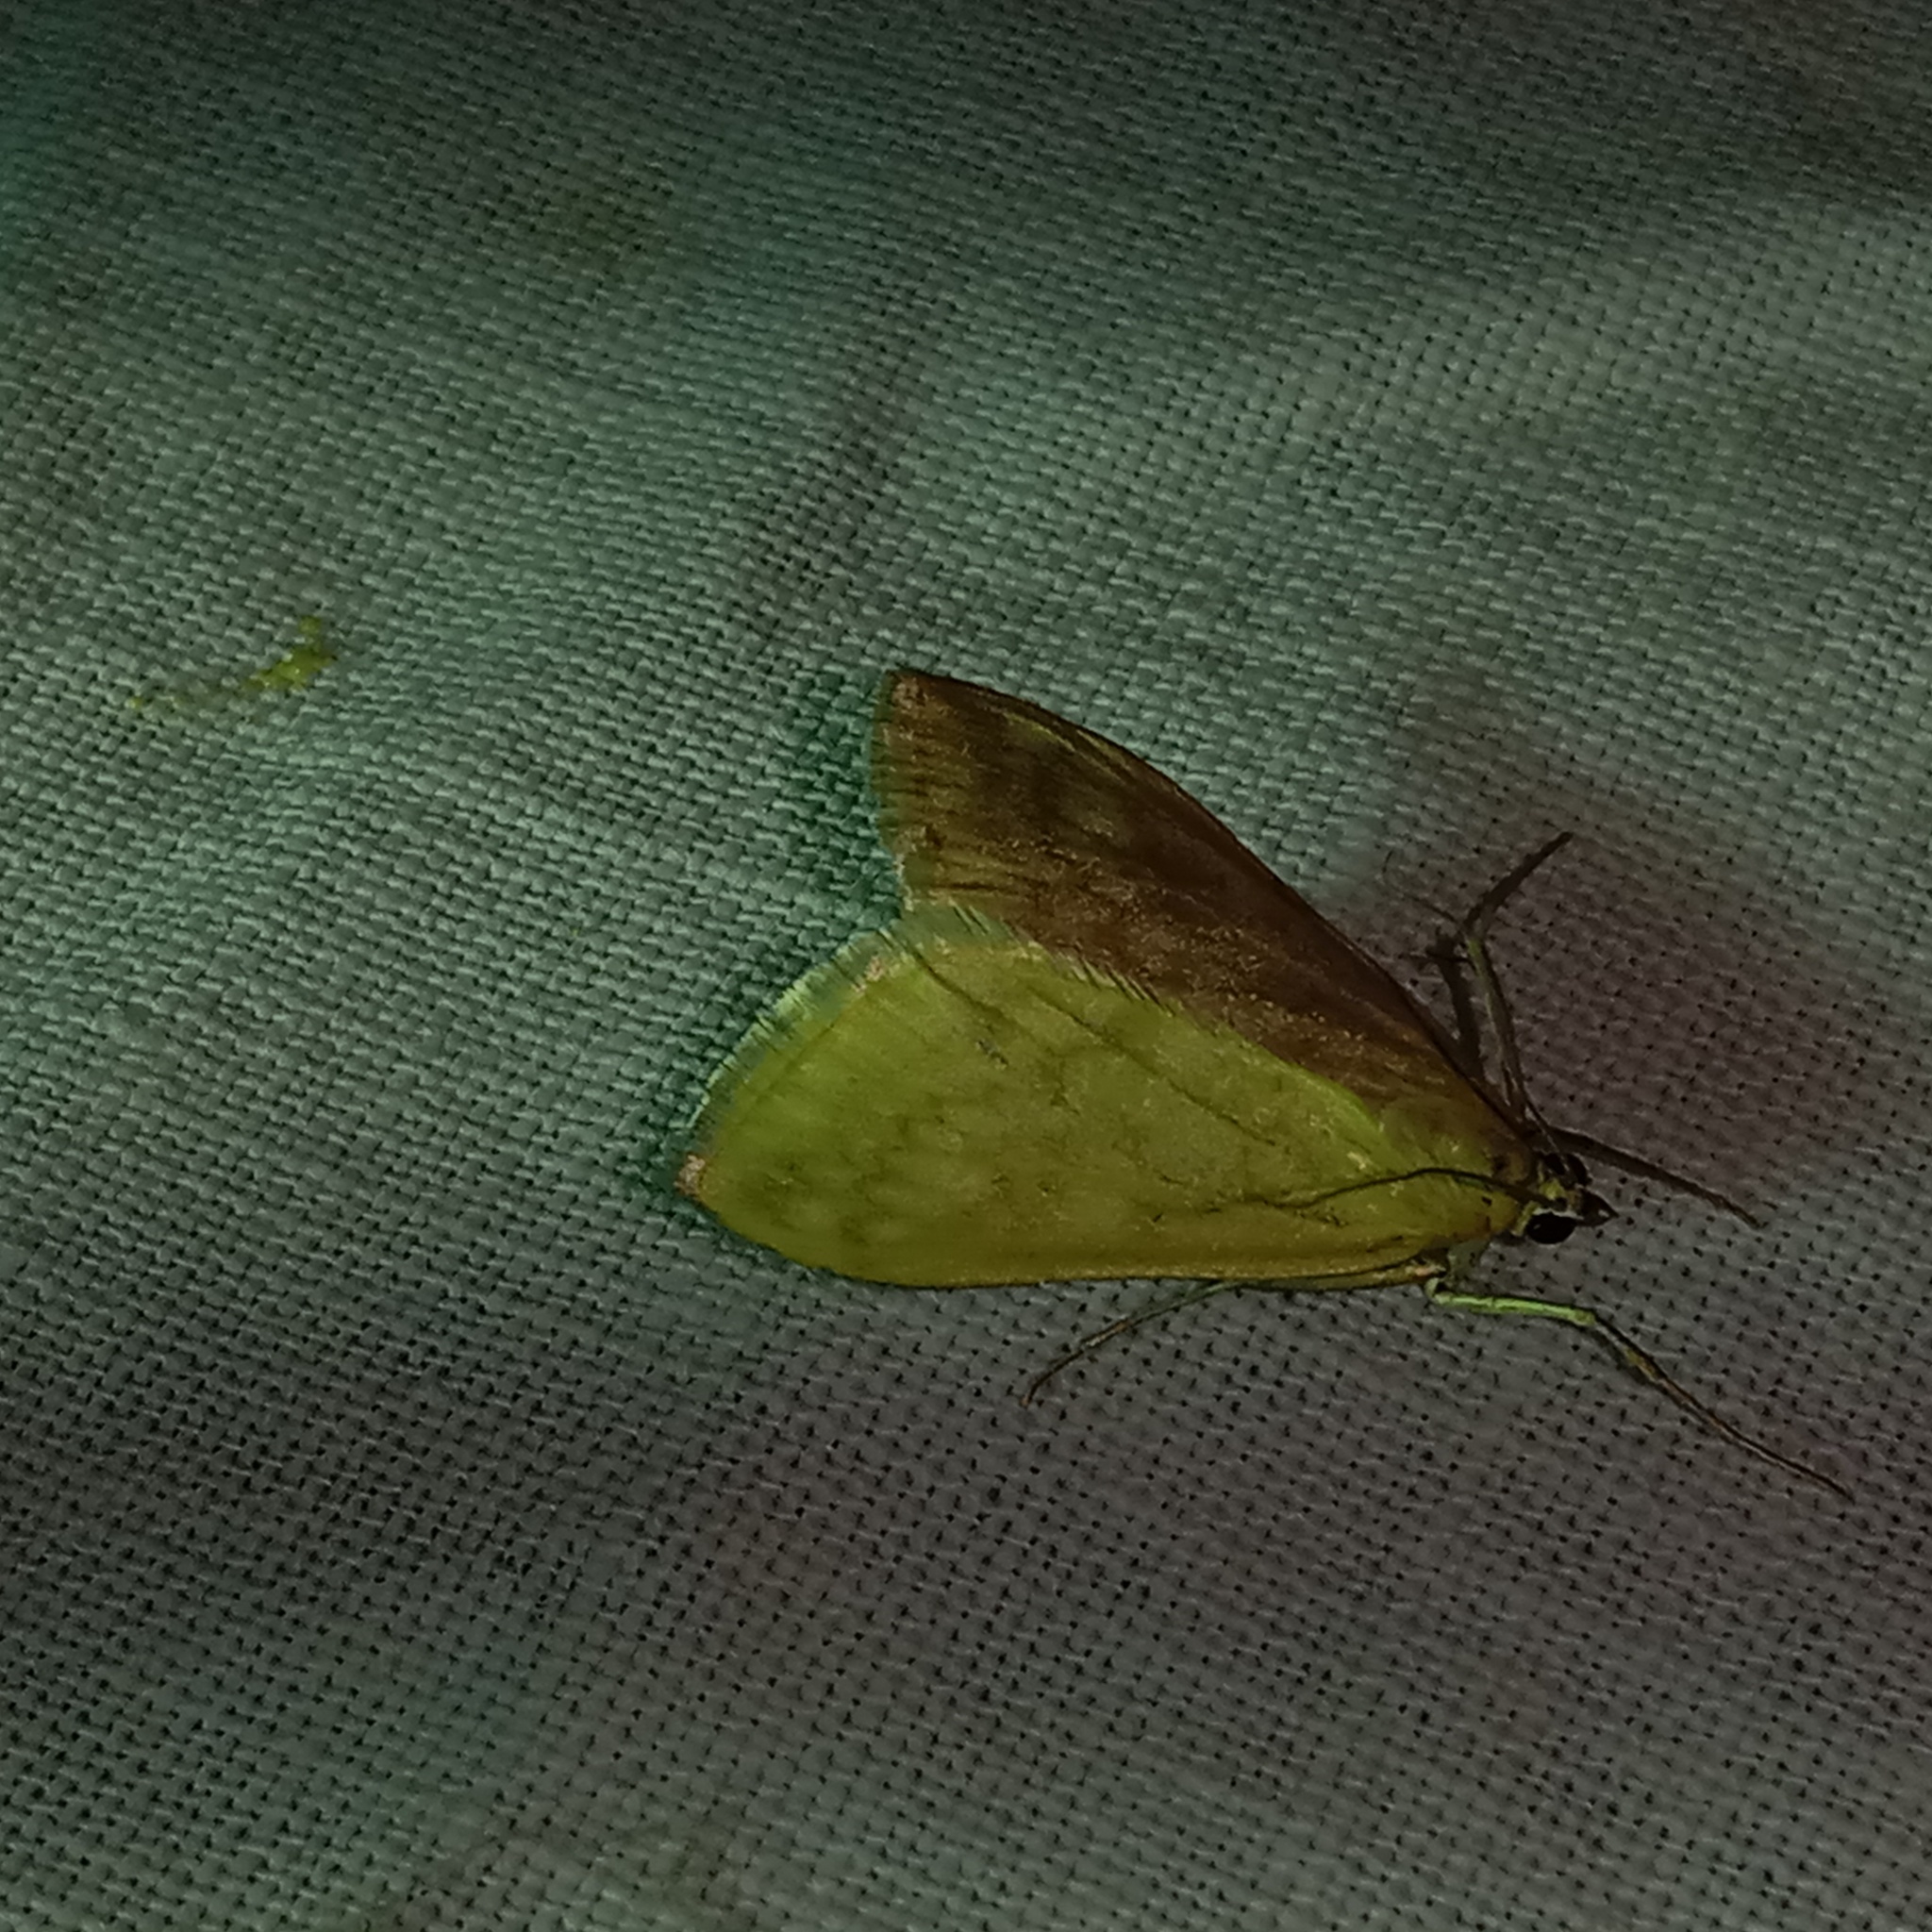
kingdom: Animalia
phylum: Arthropoda
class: Insecta
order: Lepidoptera
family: Crambidae
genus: Sitochroa
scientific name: Sitochroa verticalis
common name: Lesser pearl
